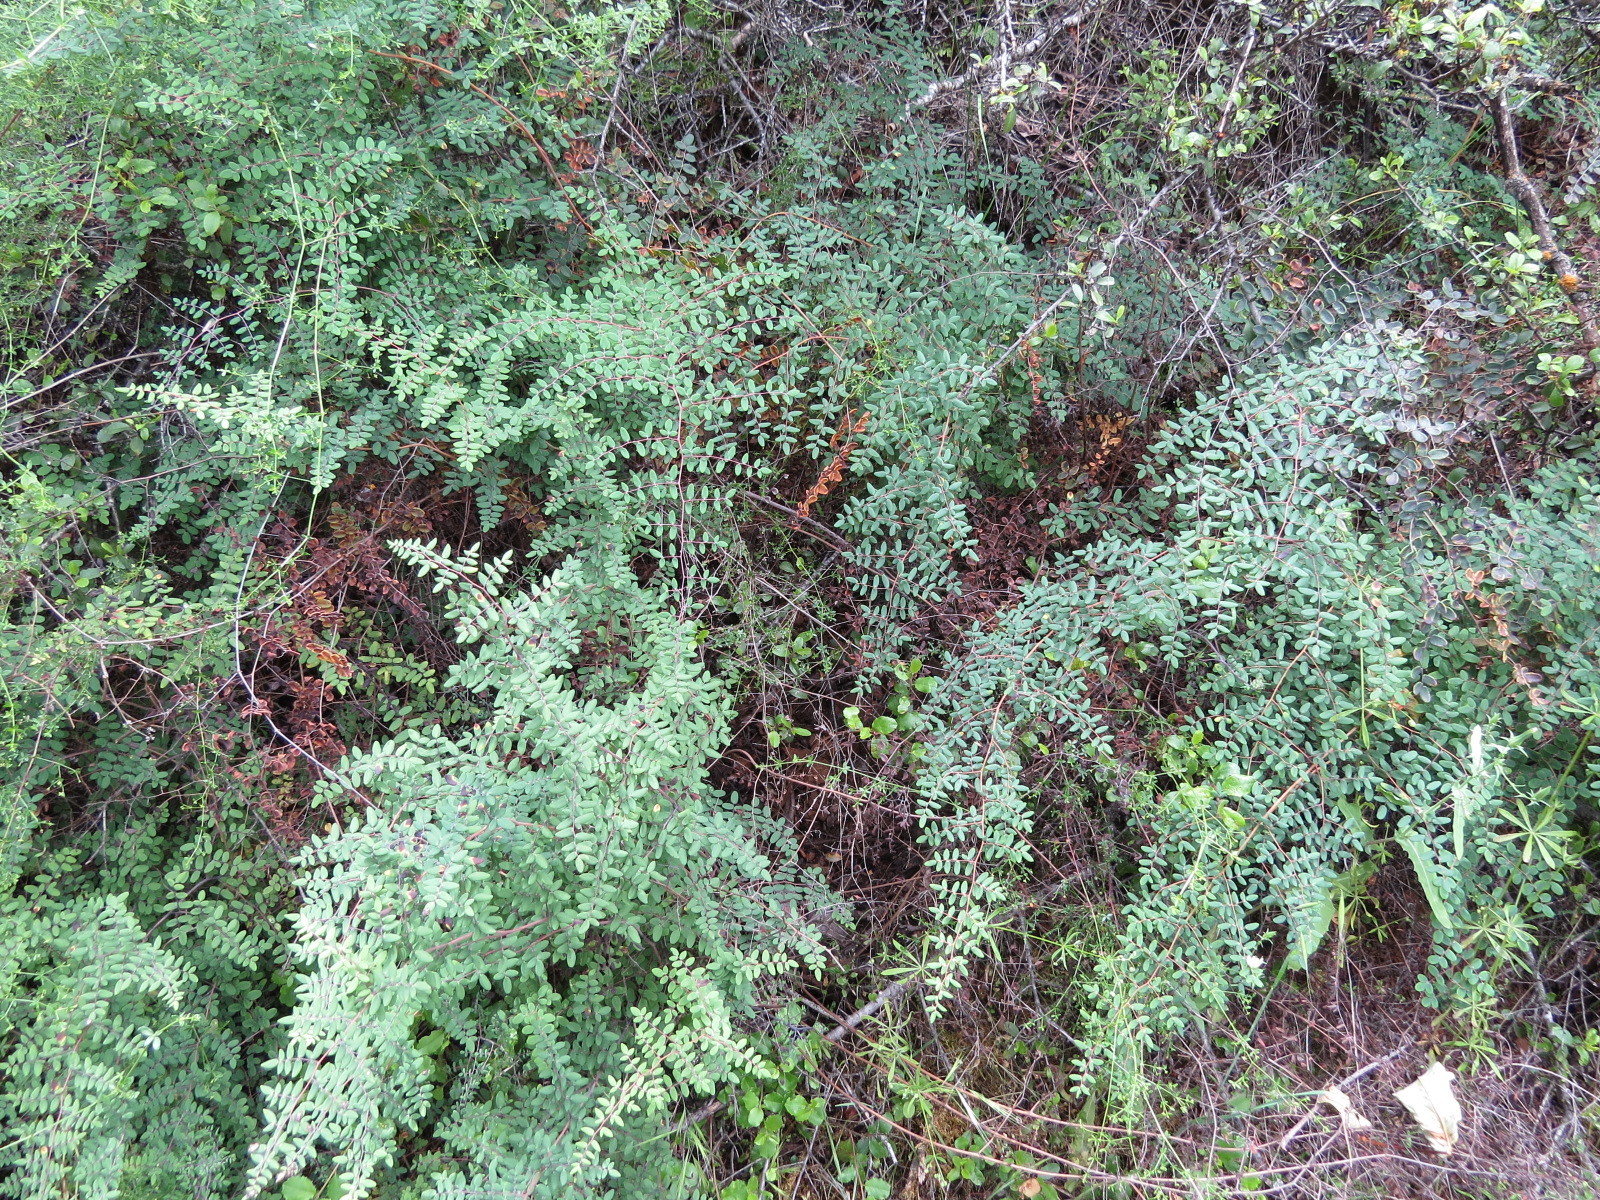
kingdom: Plantae
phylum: Tracheophyta
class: Polypodiopsida
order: Polypodiales
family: Pteridaceae
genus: Pellaea
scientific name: Pellaea andromedifolia
